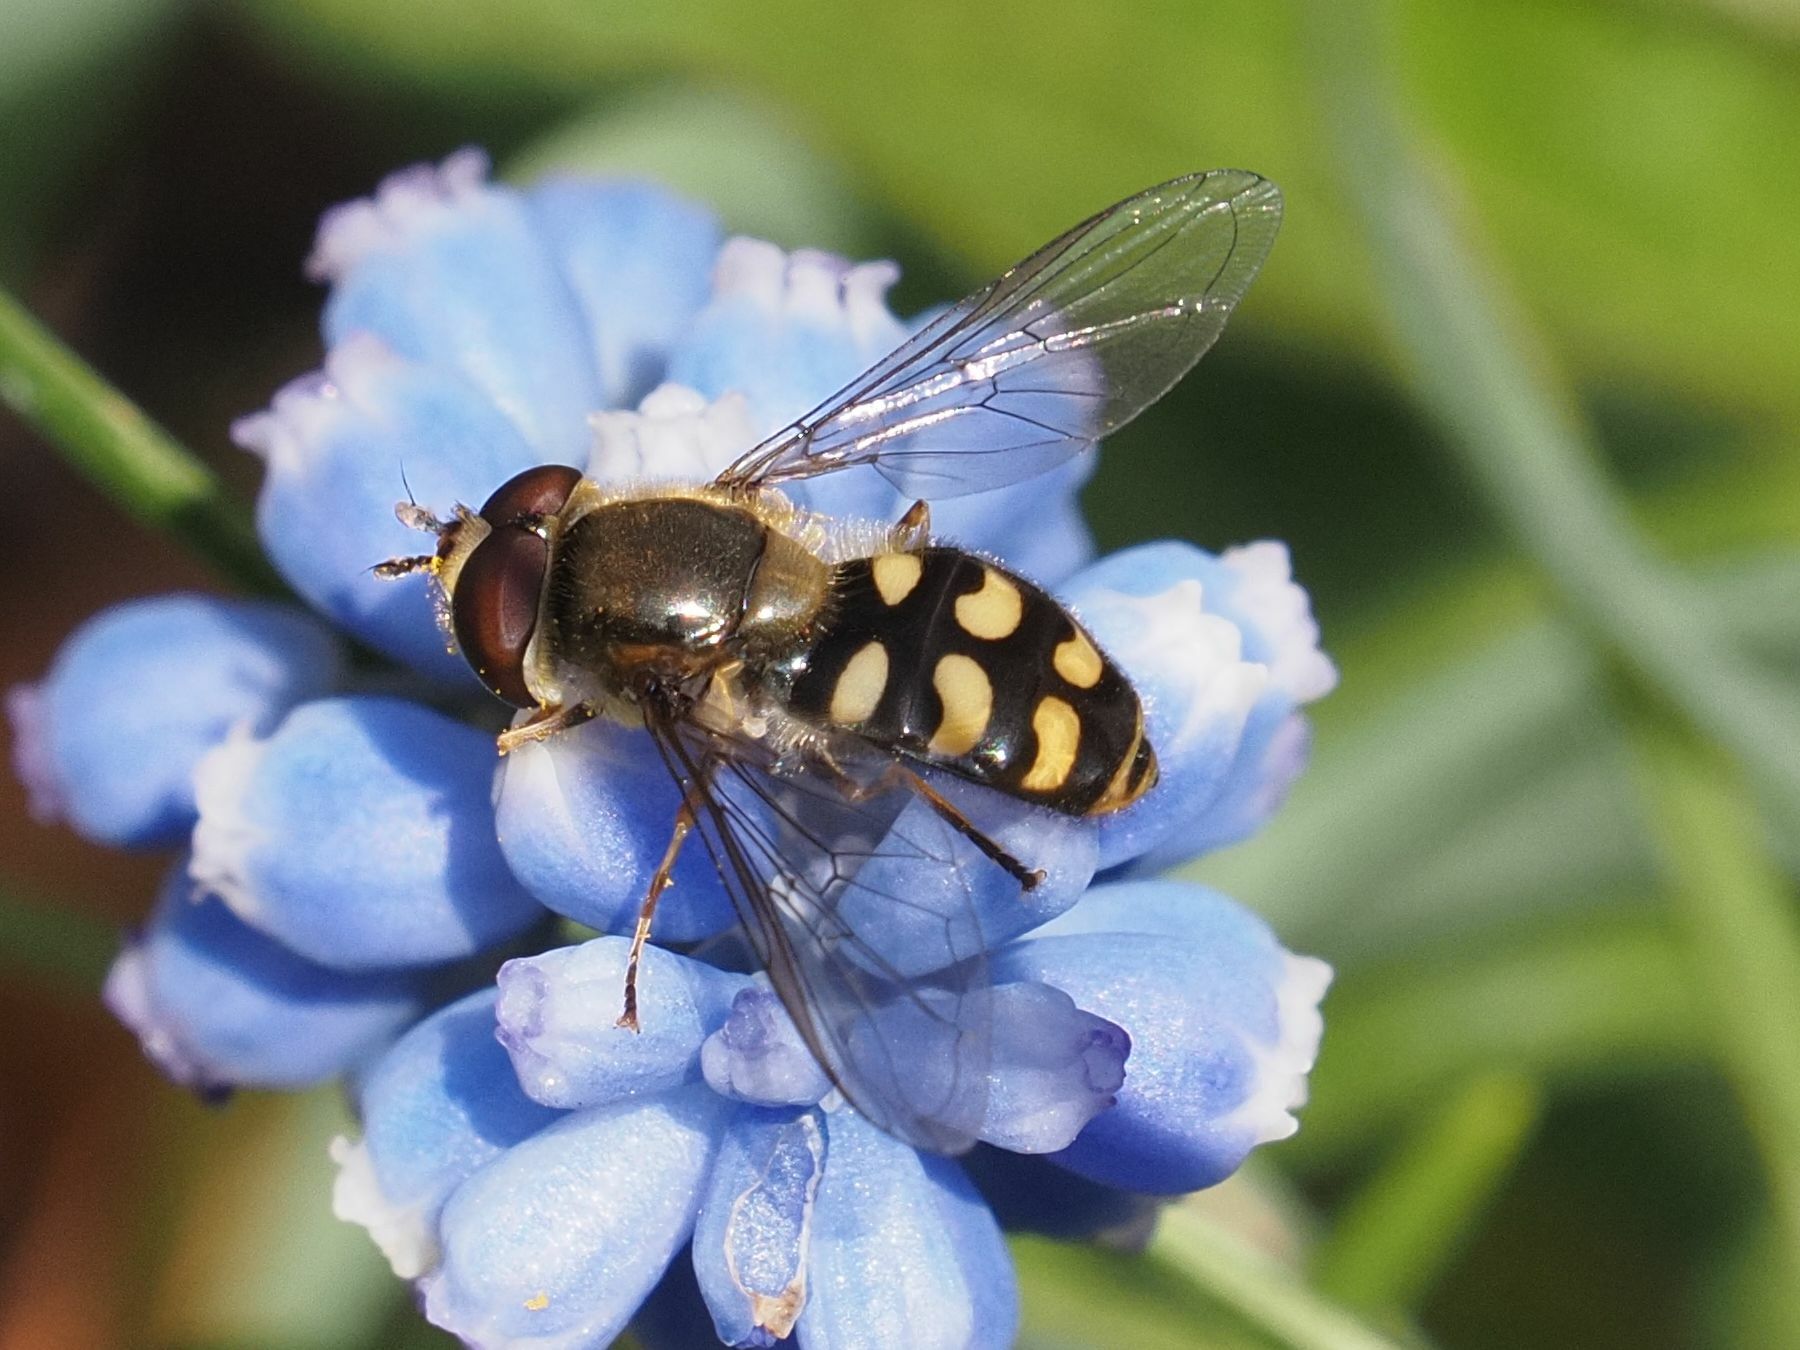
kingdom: Animalia
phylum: Arthropoda
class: Insecta
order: Diptera
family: Syrphidae
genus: Eupeodes
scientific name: Eupeodes luniger
